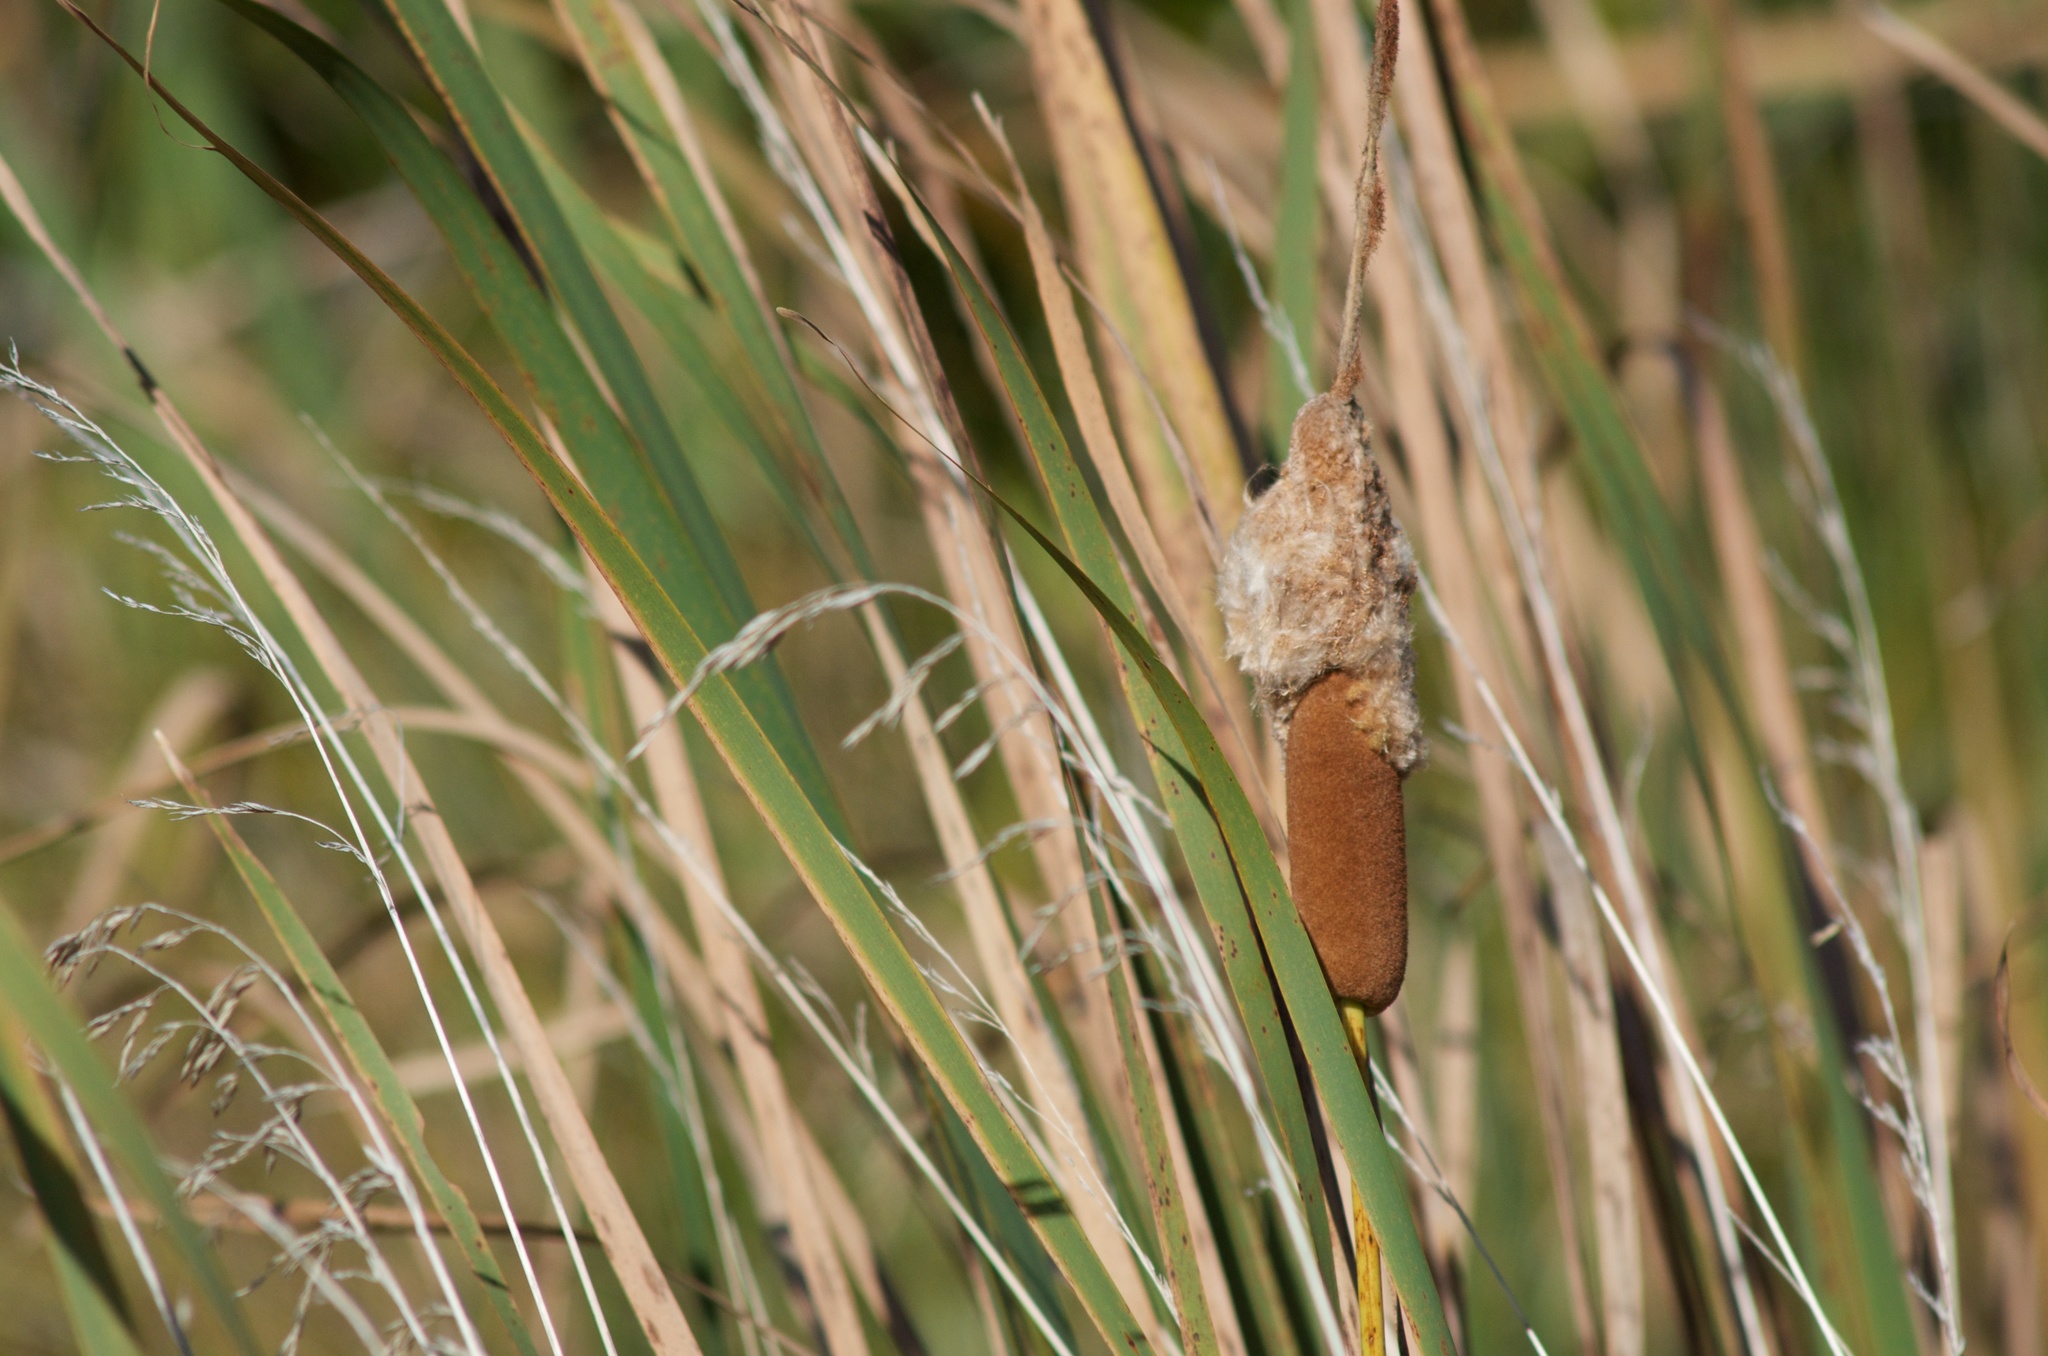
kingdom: Plantae
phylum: Tracheophyta
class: Liliopsida
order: Poales
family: Typhaceae
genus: Typha
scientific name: Typha orientalis
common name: Bullrush
